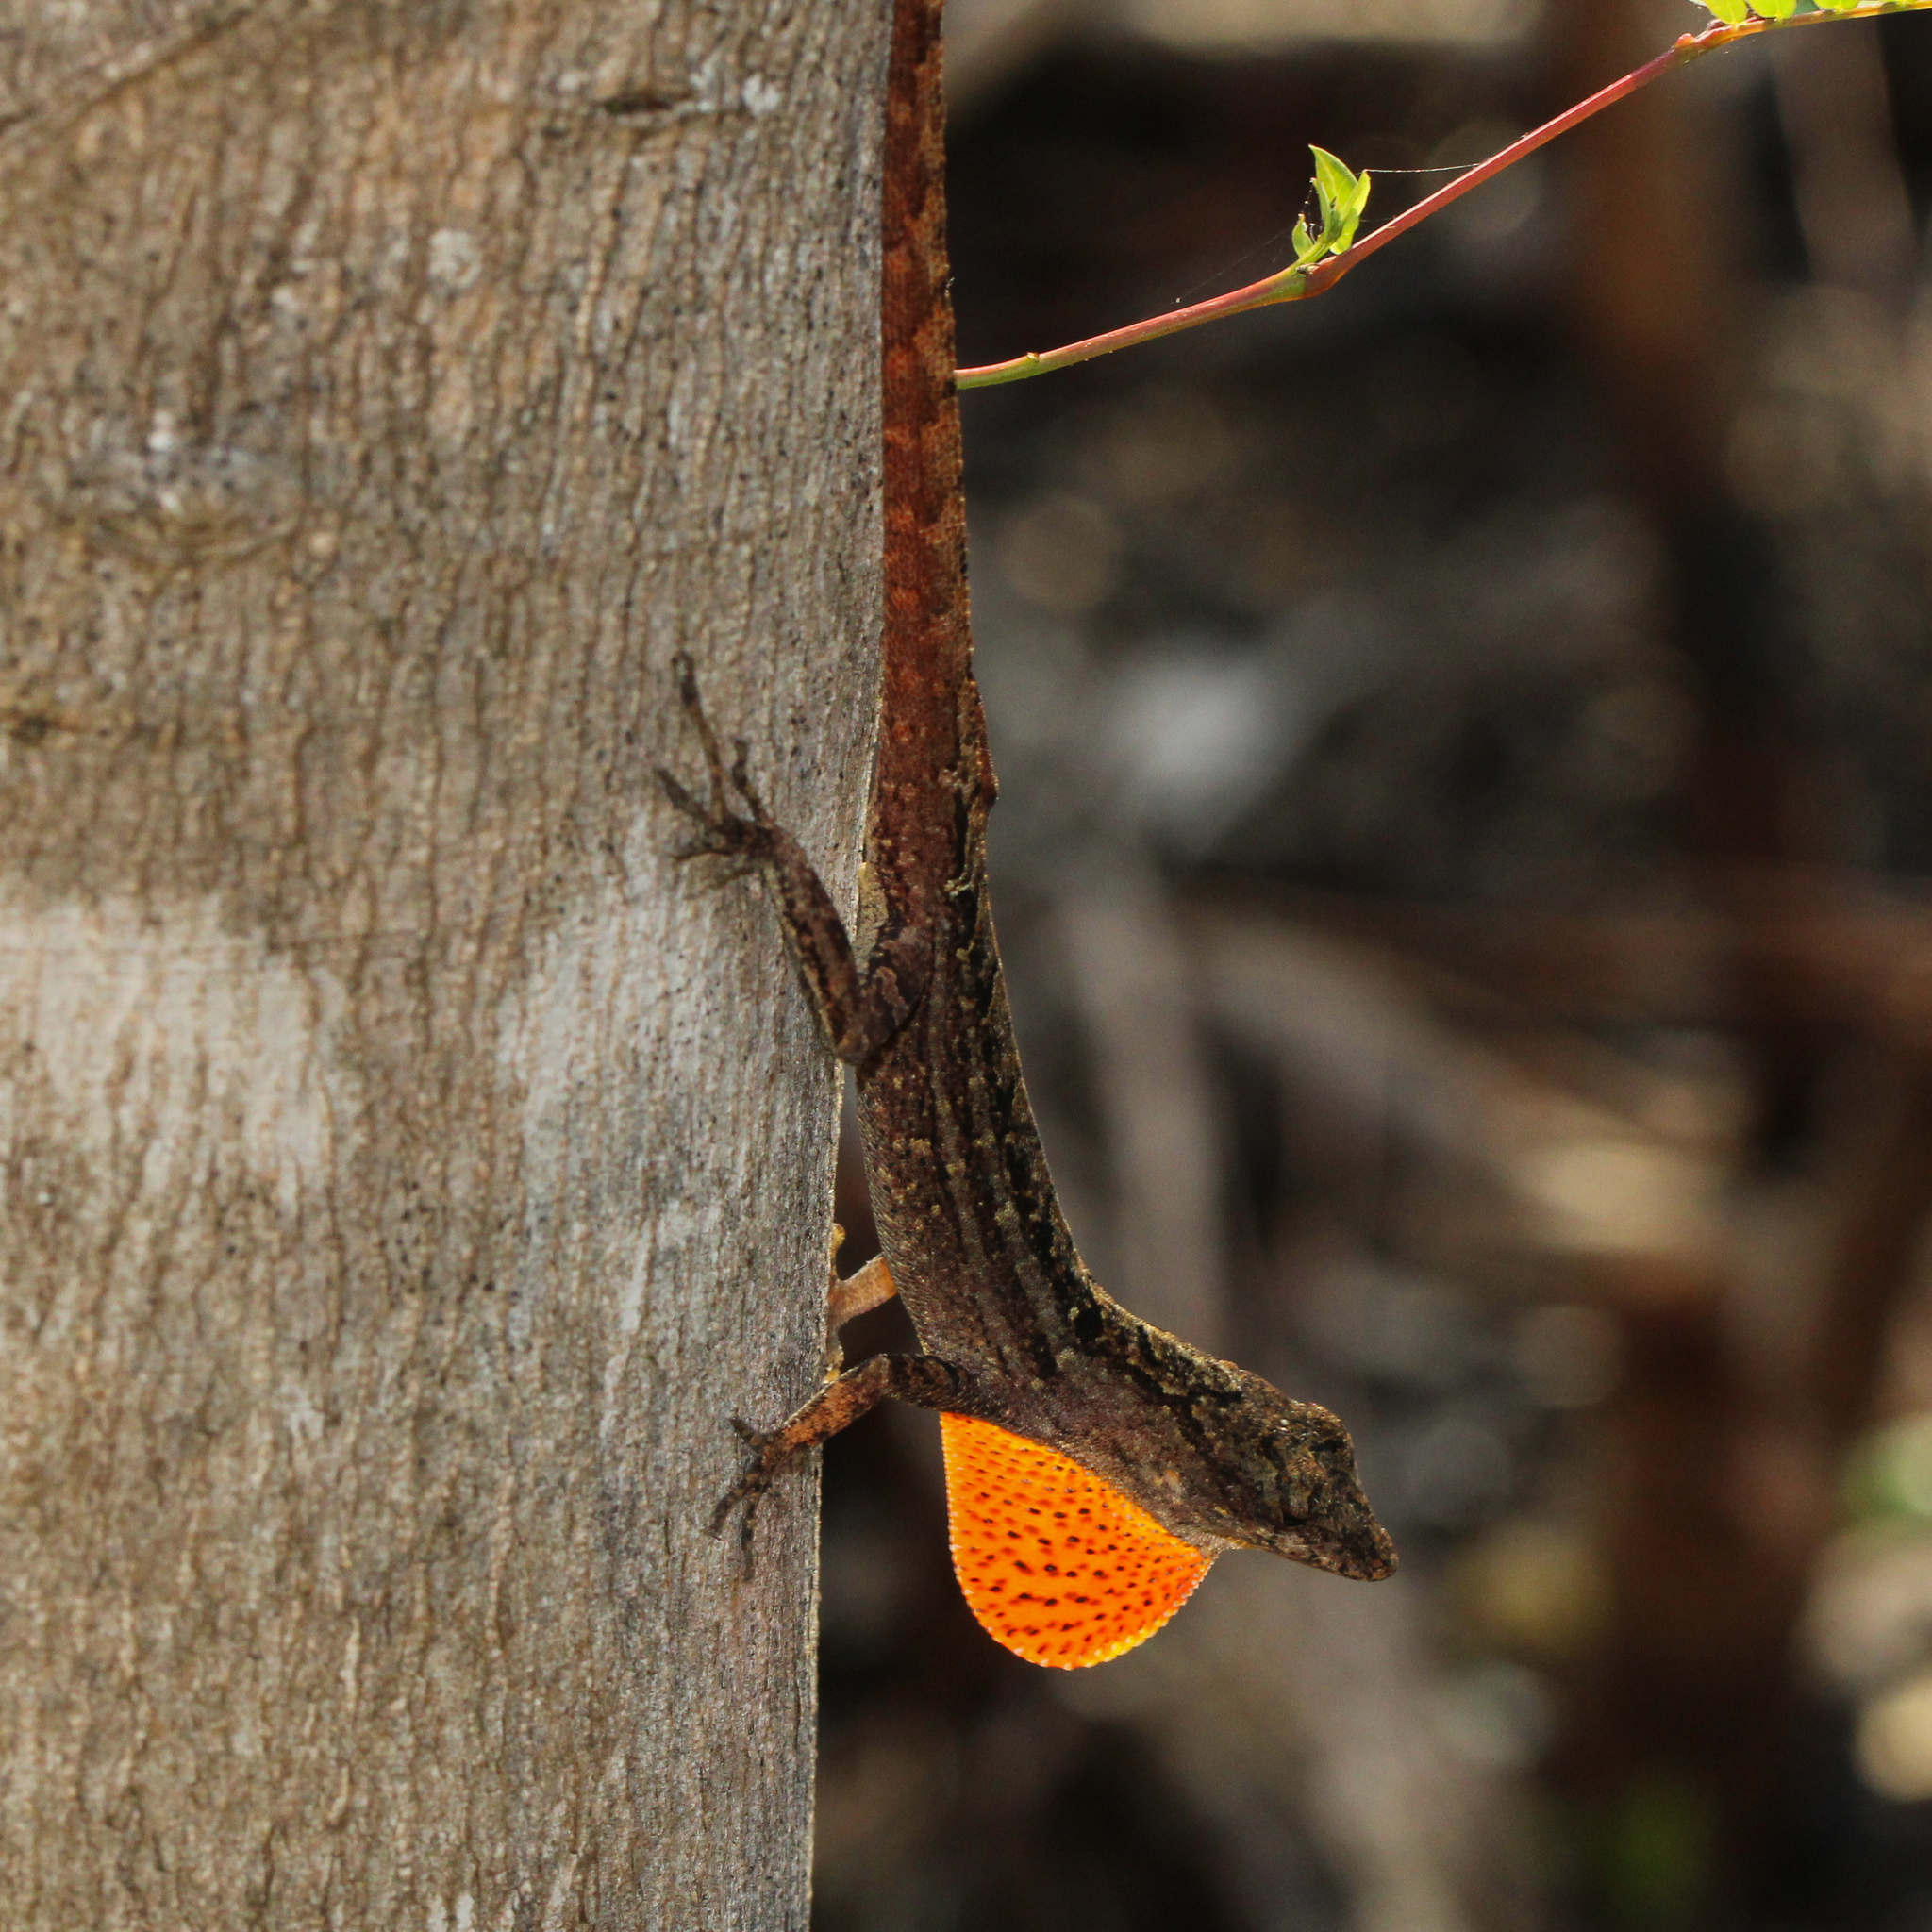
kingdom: Animalia
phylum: Chordata
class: Squamata
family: Dactyloidae
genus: Anolis
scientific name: Anolis sagrei
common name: Brown anole
